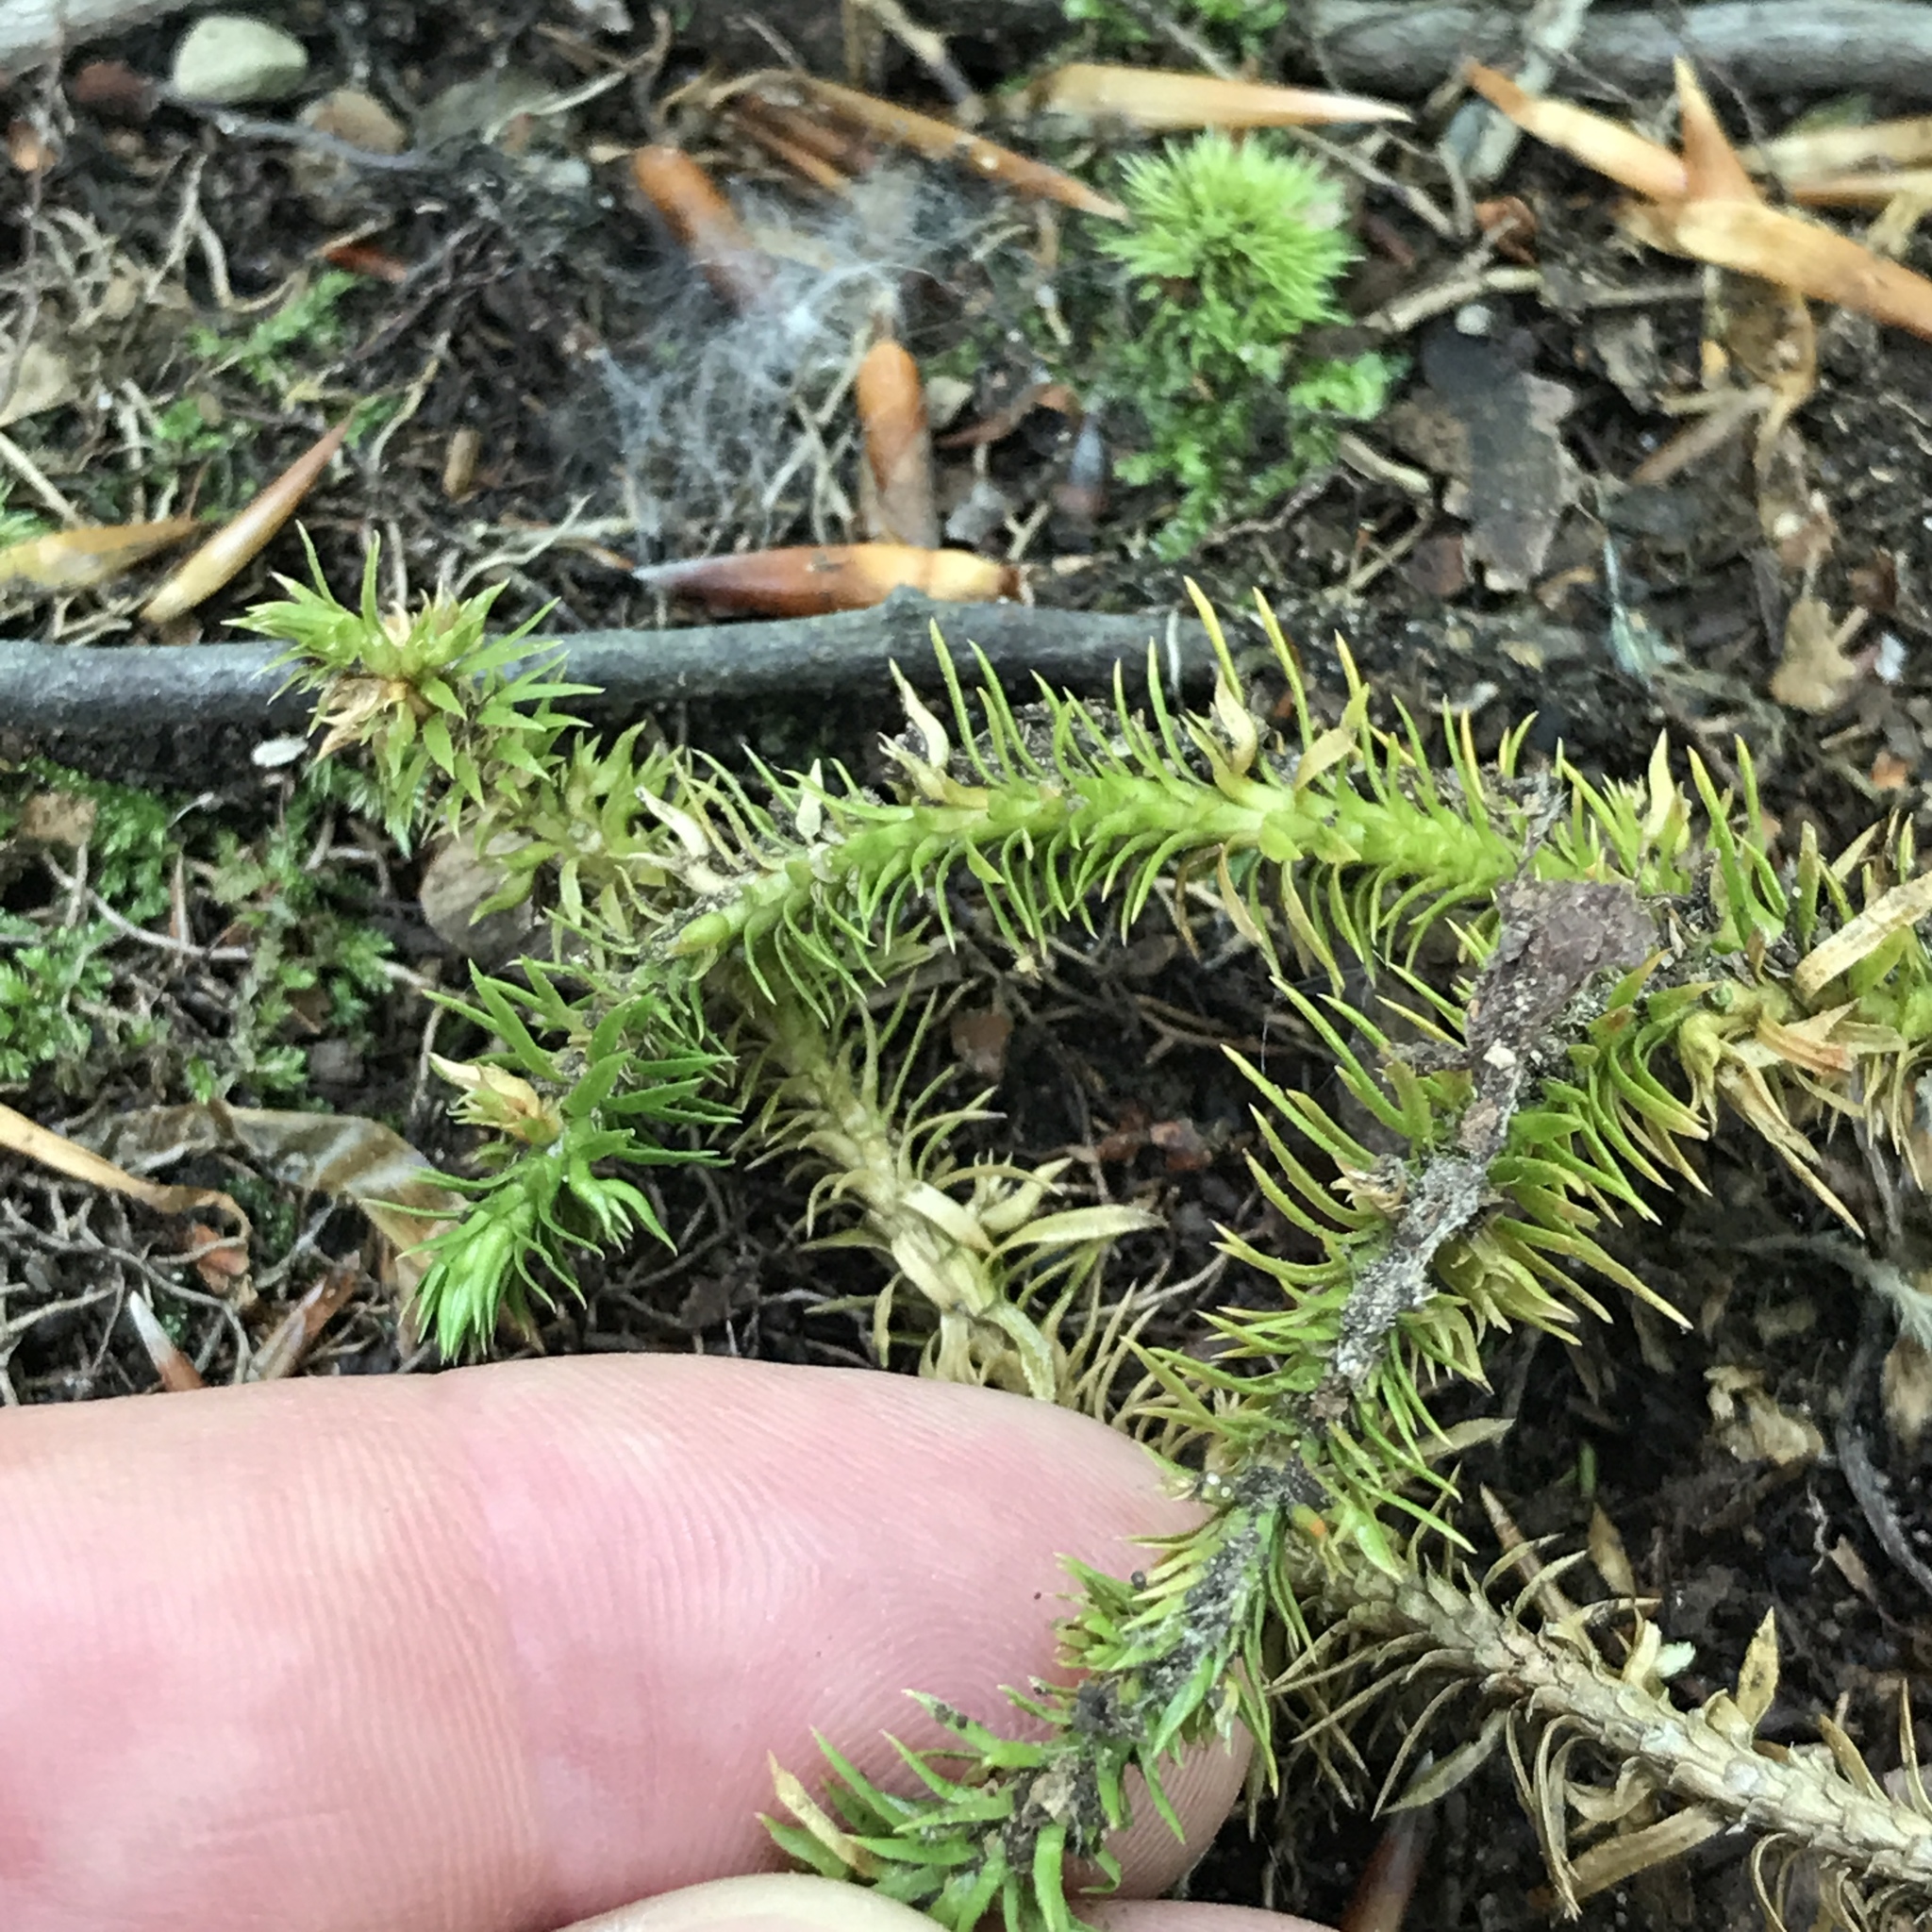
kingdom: Plantae
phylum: Tracheophyta
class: Lycopodiopsida
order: Lycopodiales
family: Lycopodiaceae
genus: Huperzia
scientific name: Huperzia lucidula
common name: Shining clubmoss
